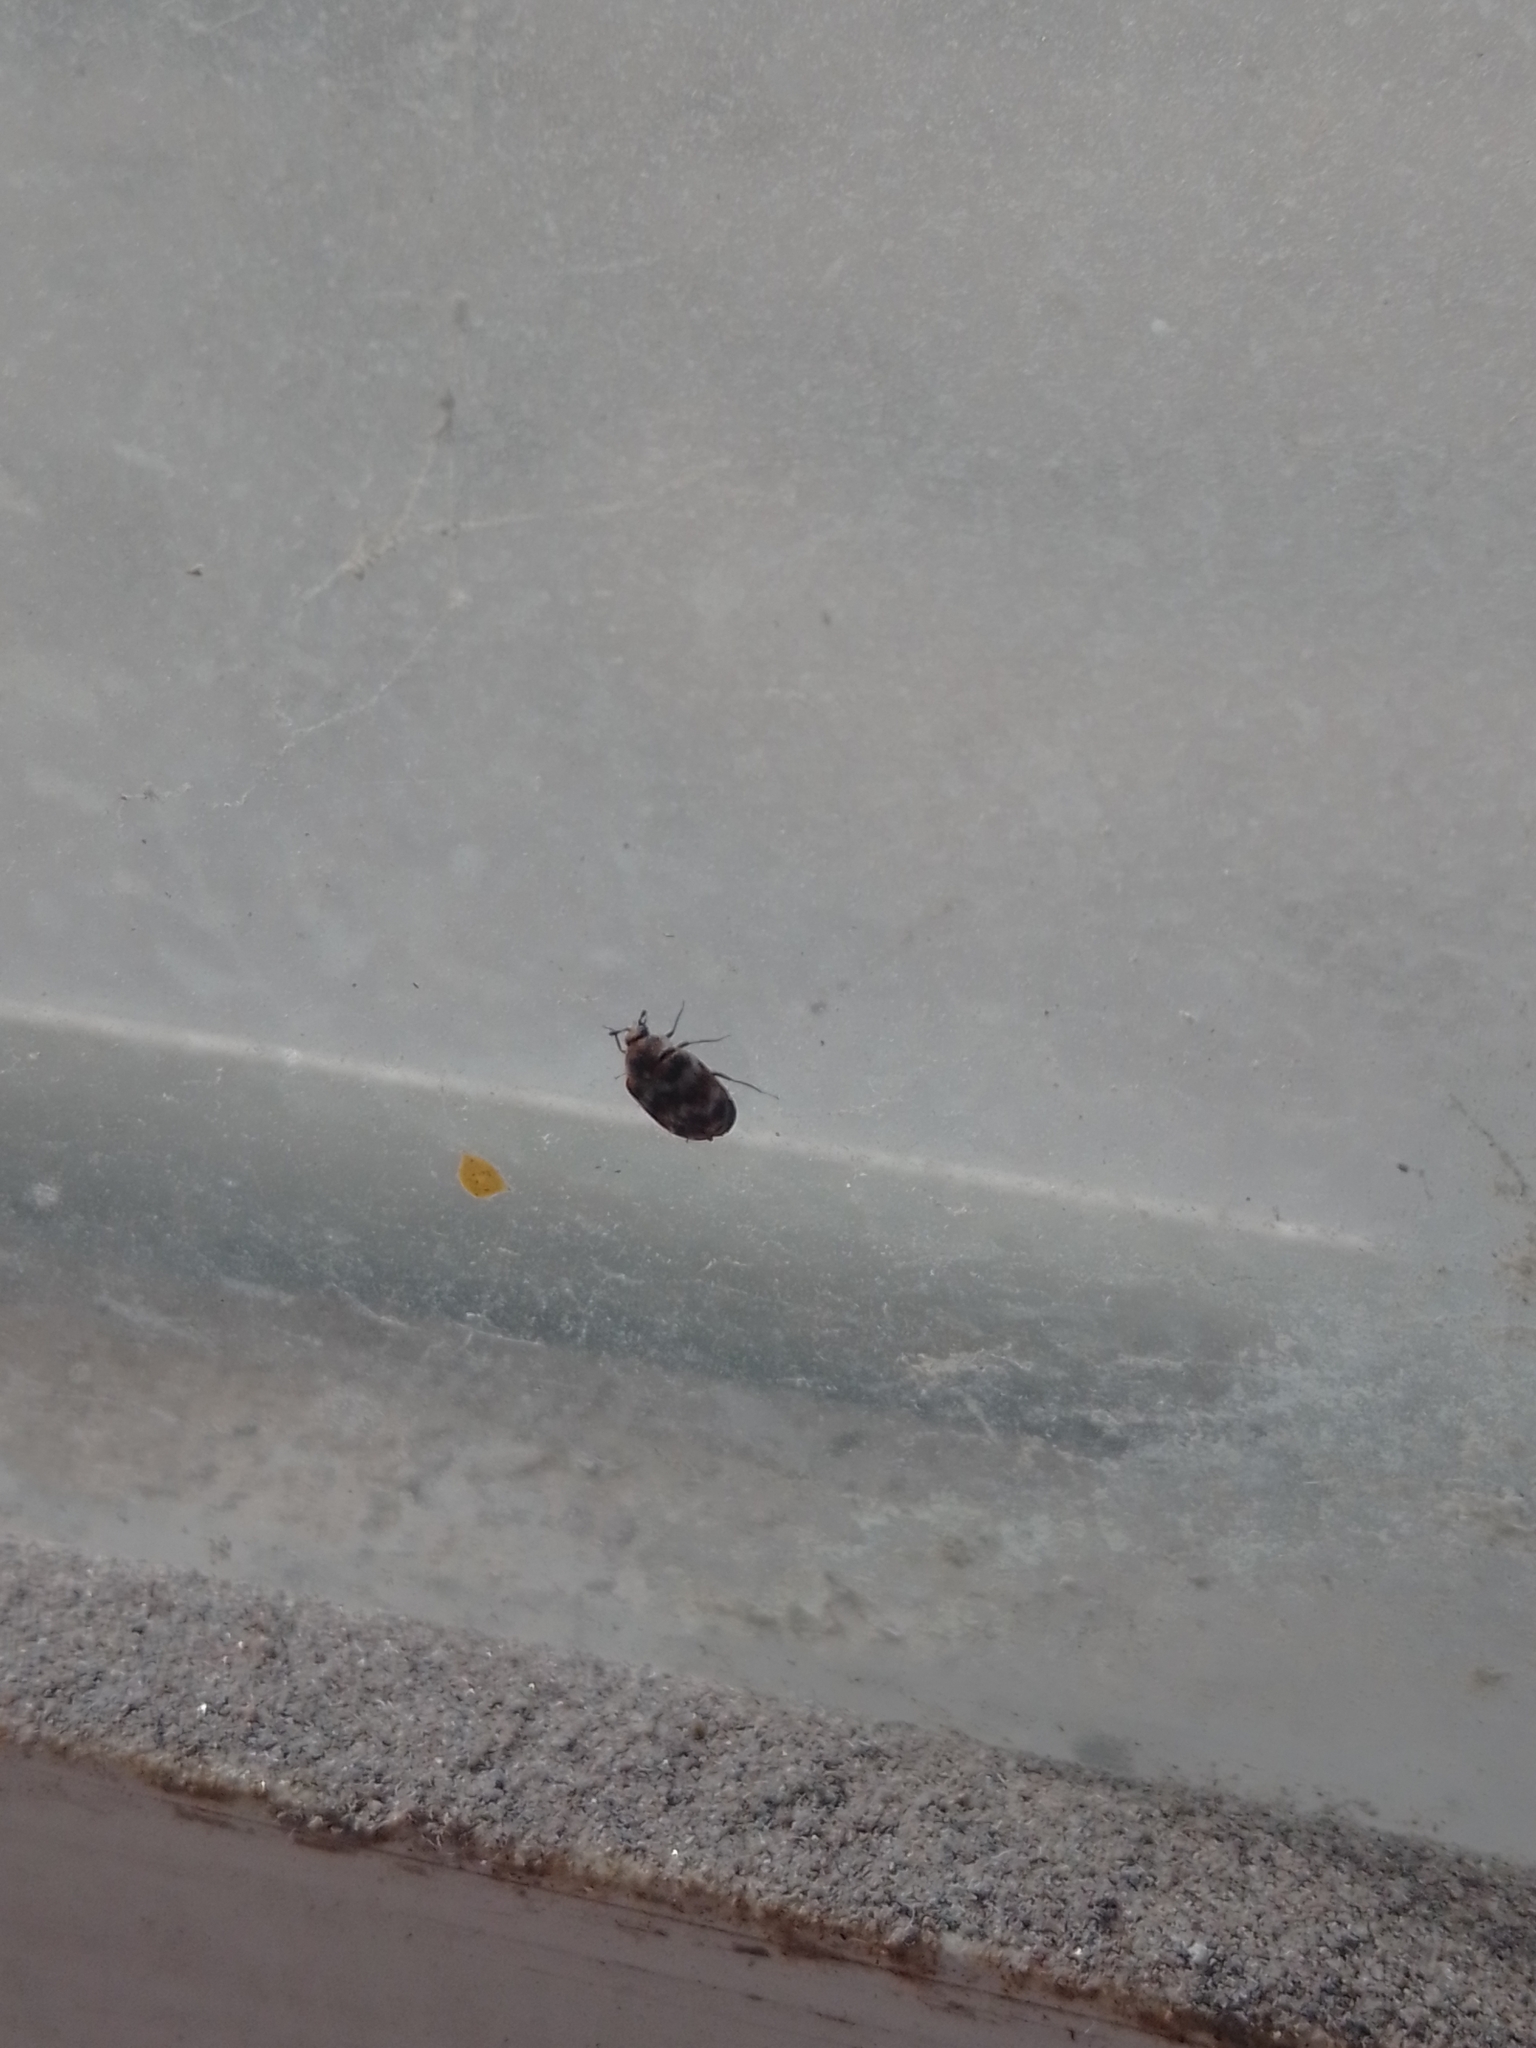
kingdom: Animalia
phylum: Arthropoda
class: Insecta
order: Coleoptera
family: Dermestidae
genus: Anthrenus
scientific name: Anthrenus verbasci
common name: Varied carpet beetle
